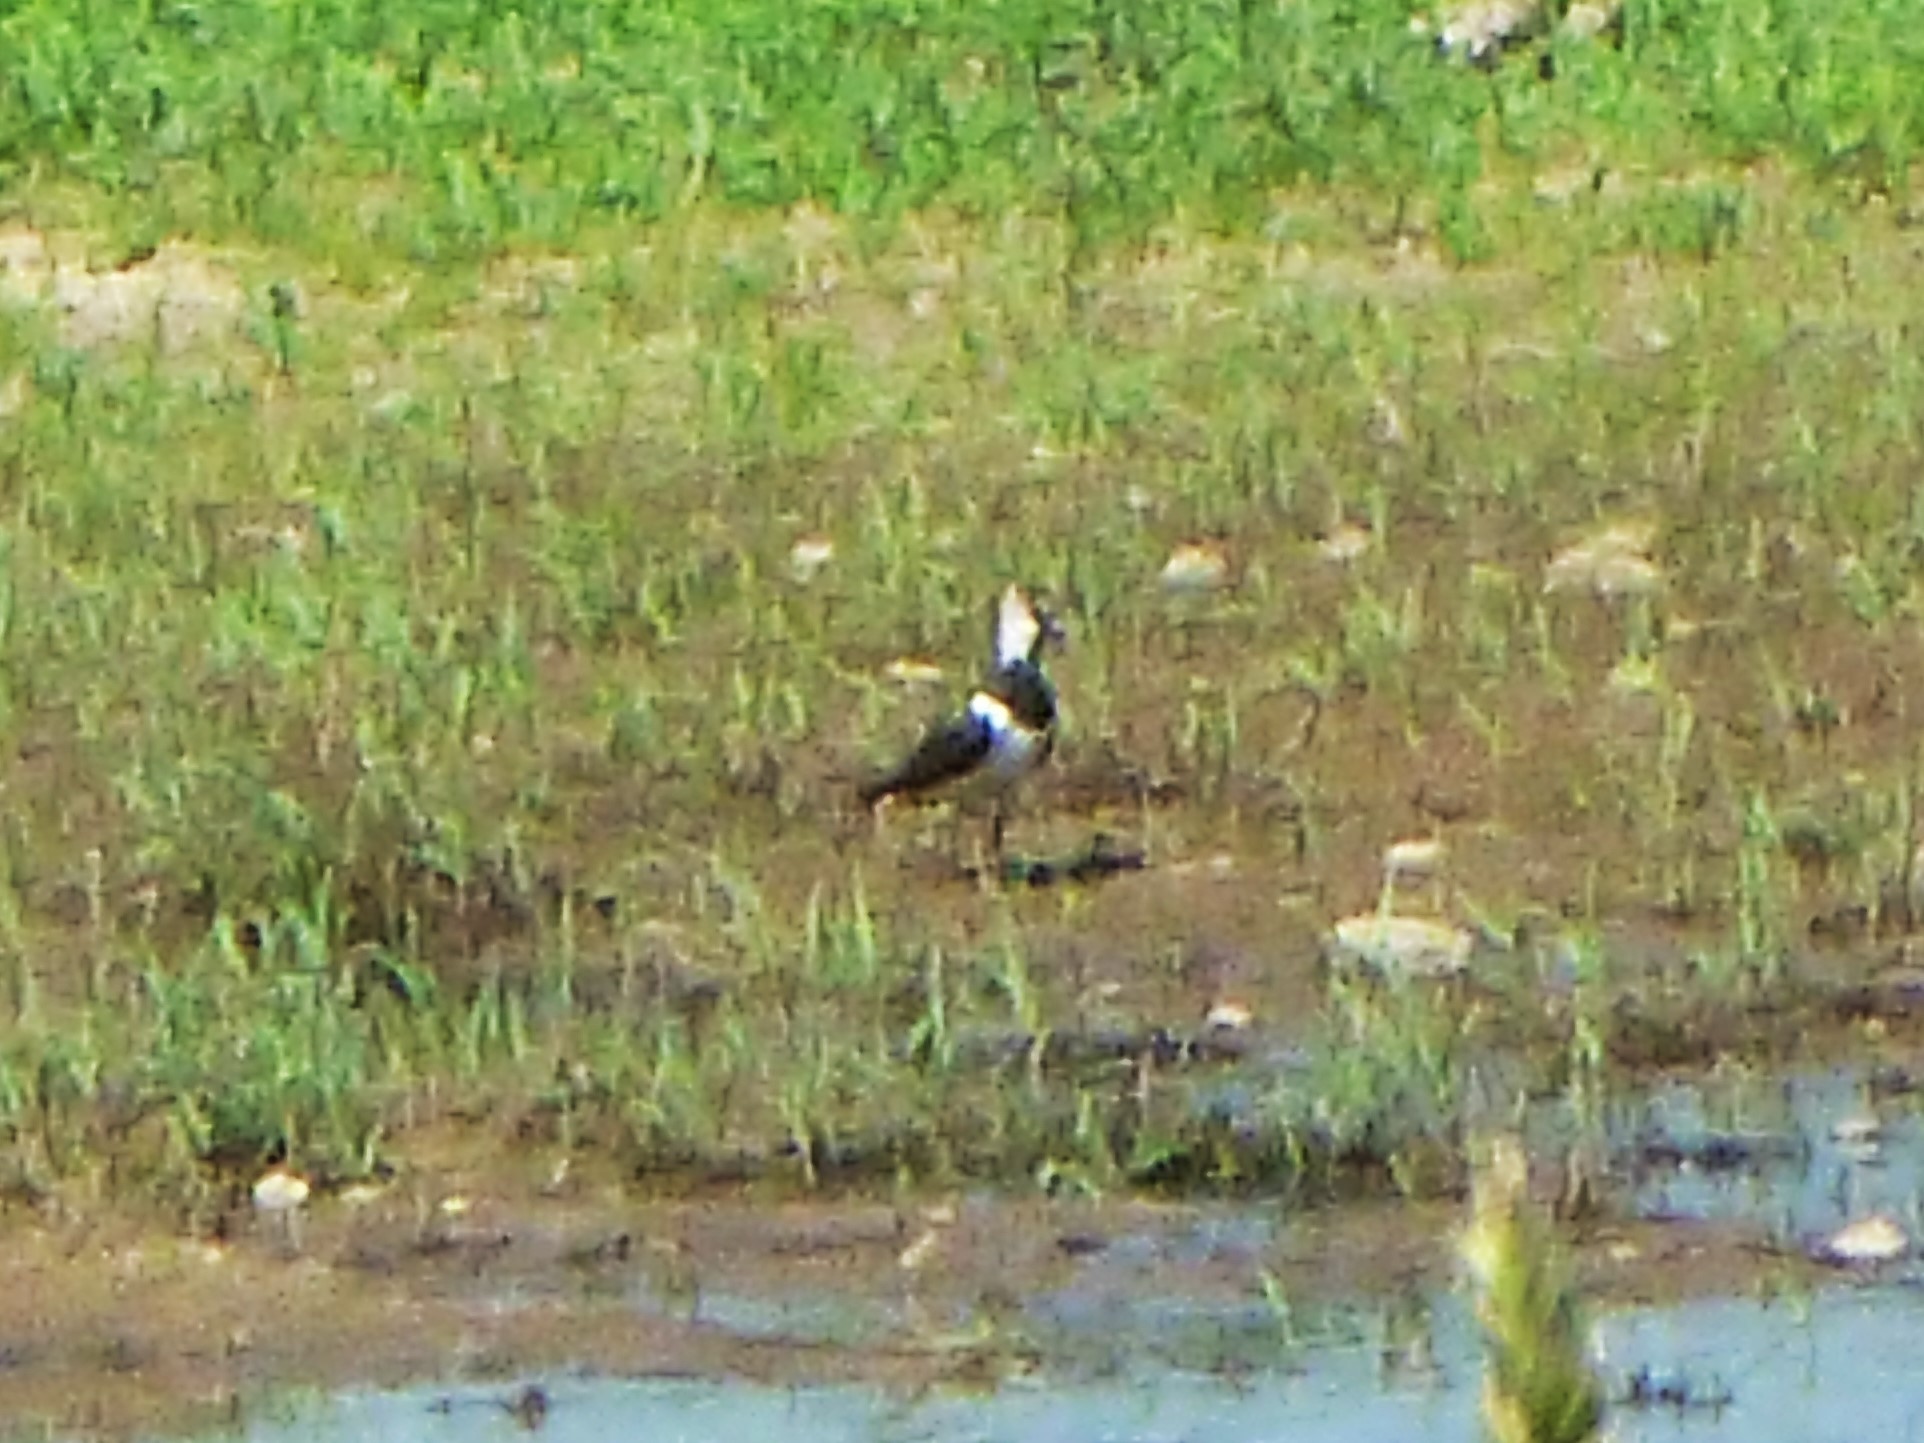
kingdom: Animalia
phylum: Chordata
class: Aves
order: Charadriiformes
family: Charadriidae
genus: Vanellus
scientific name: Vanellus vanellus
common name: Northern lapwing
